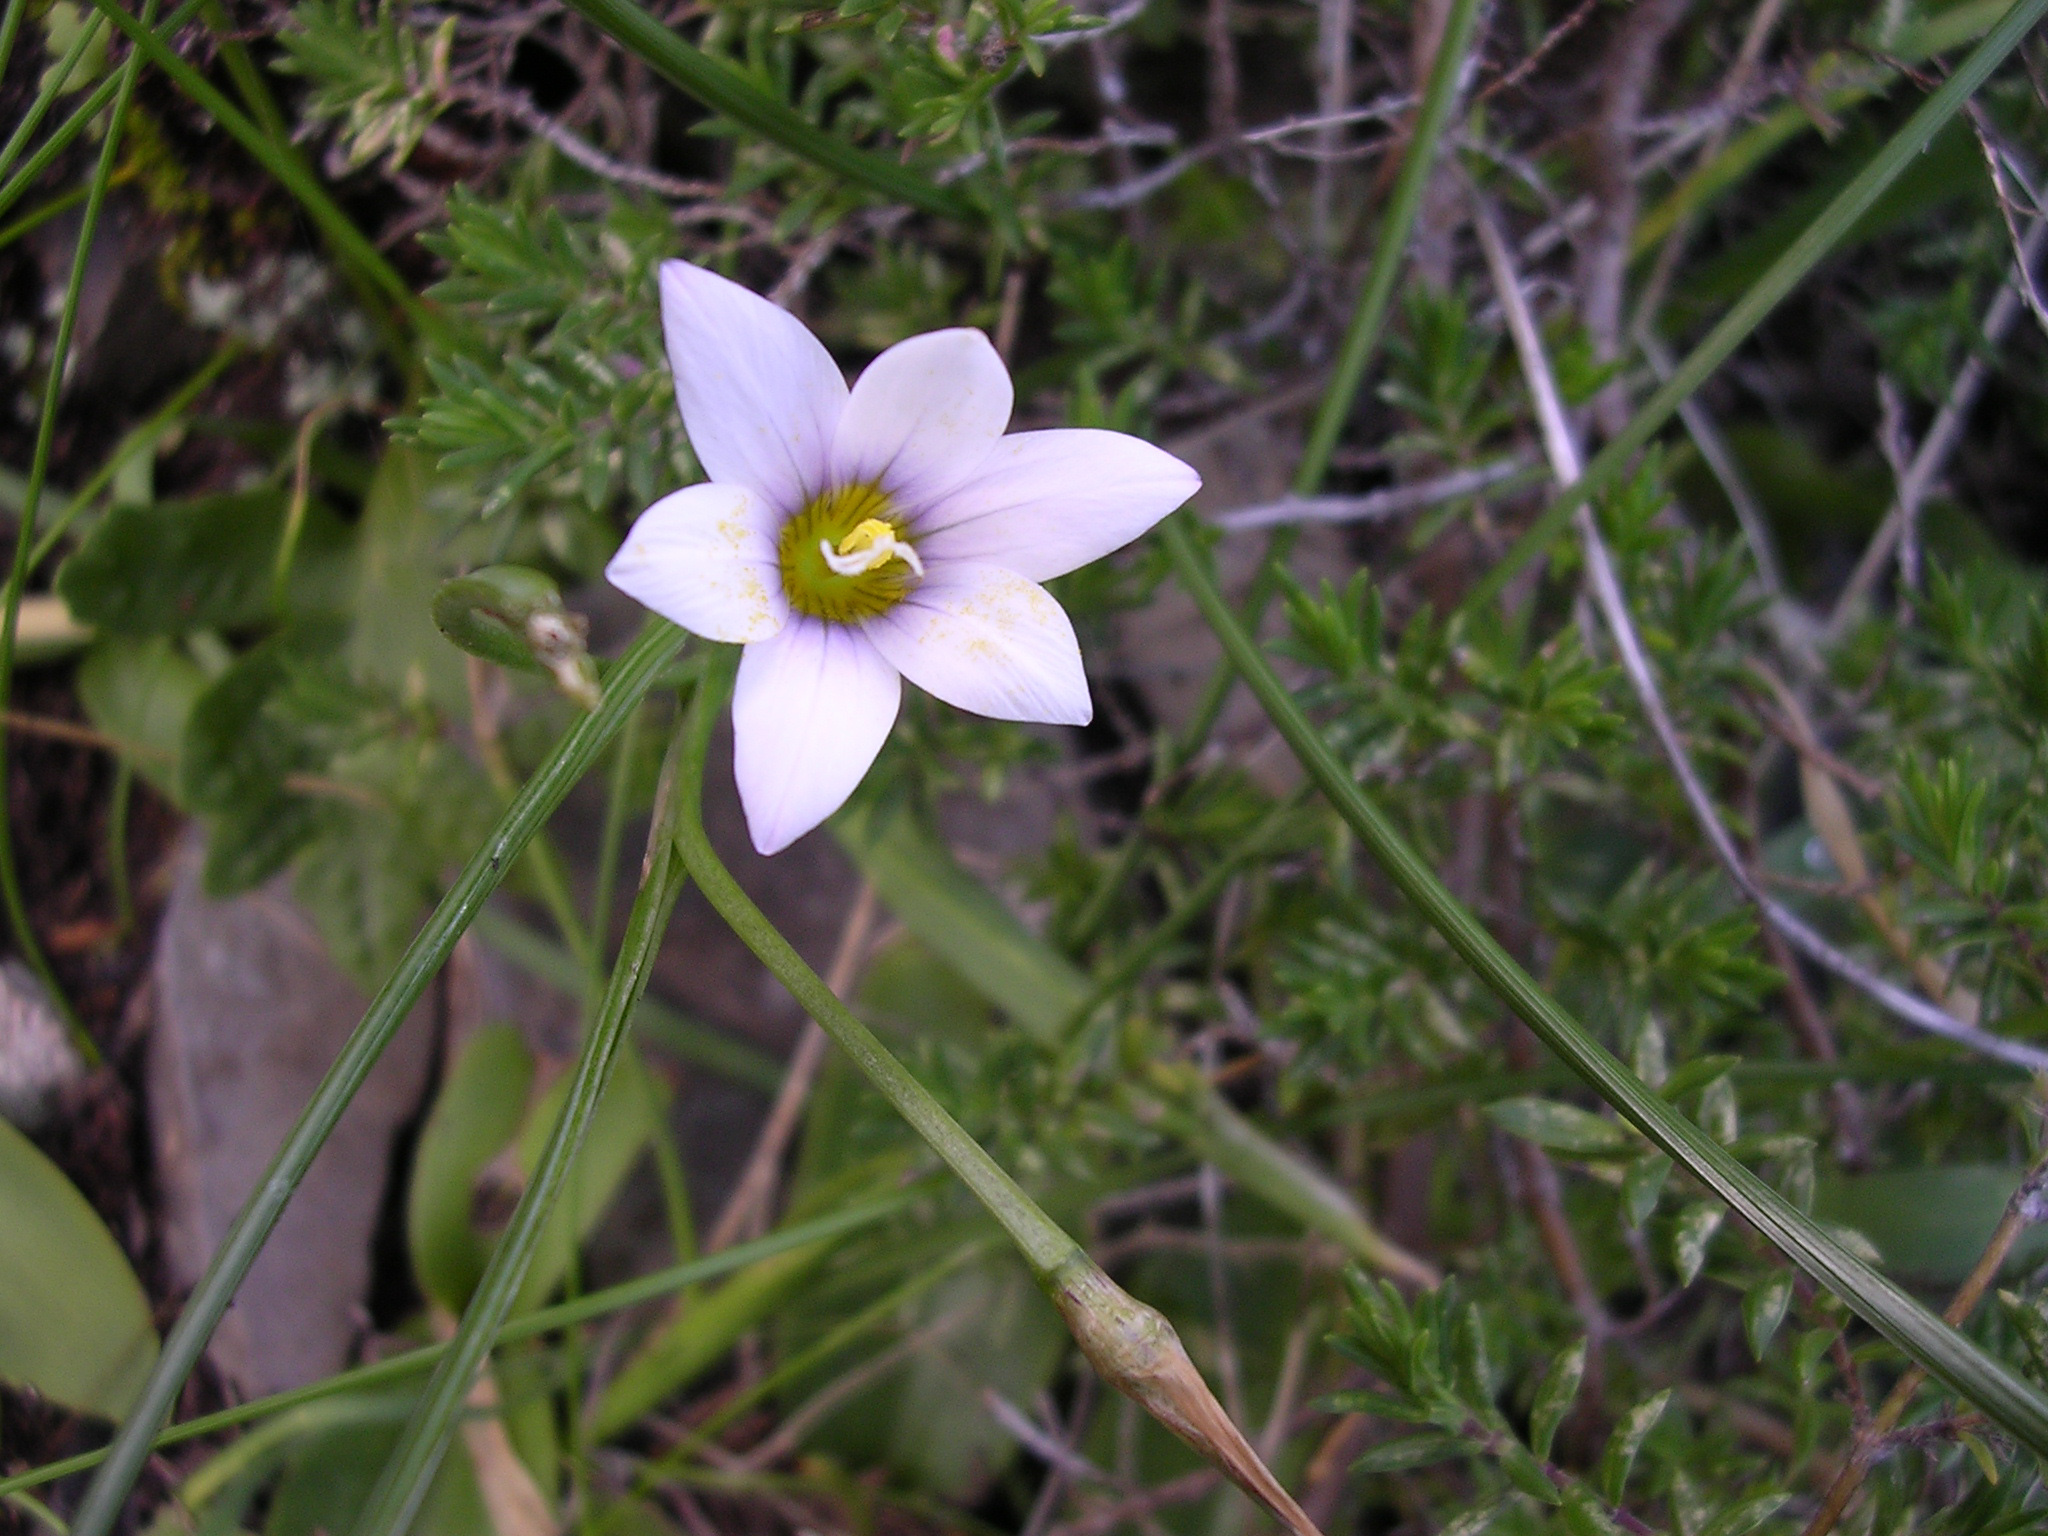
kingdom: Plantae
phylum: Tracheophyta
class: Liliopsida
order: Asparagales
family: Iridaceae
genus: Romulea
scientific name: Romulea columnae
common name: Sand-crocus
